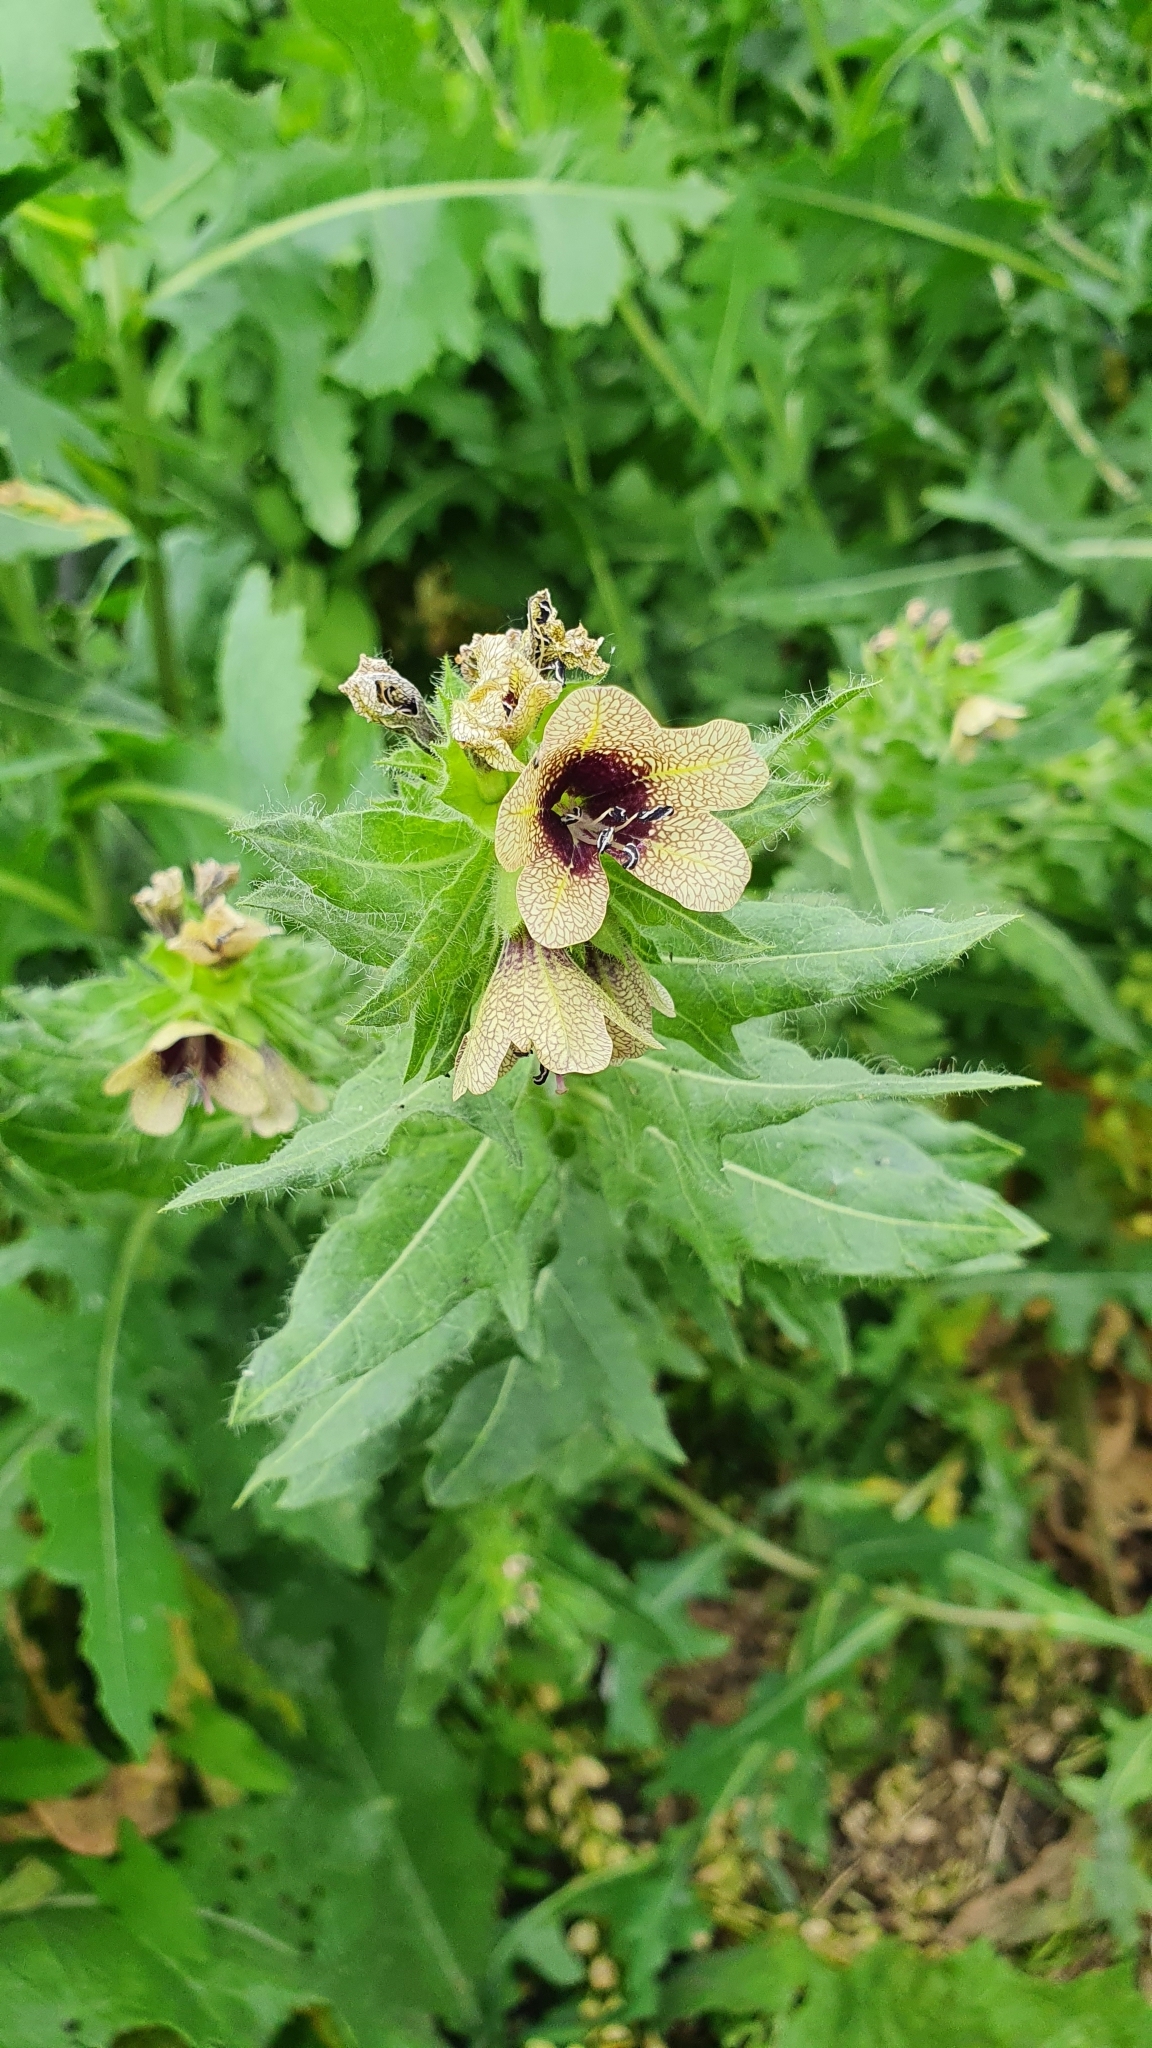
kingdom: Plantae
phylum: Tracheophyta
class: Magnoliopsida
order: Solanales
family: Solanaceae
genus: Hyoscyamus
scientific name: Hyoscyamus niger
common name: Henbane
